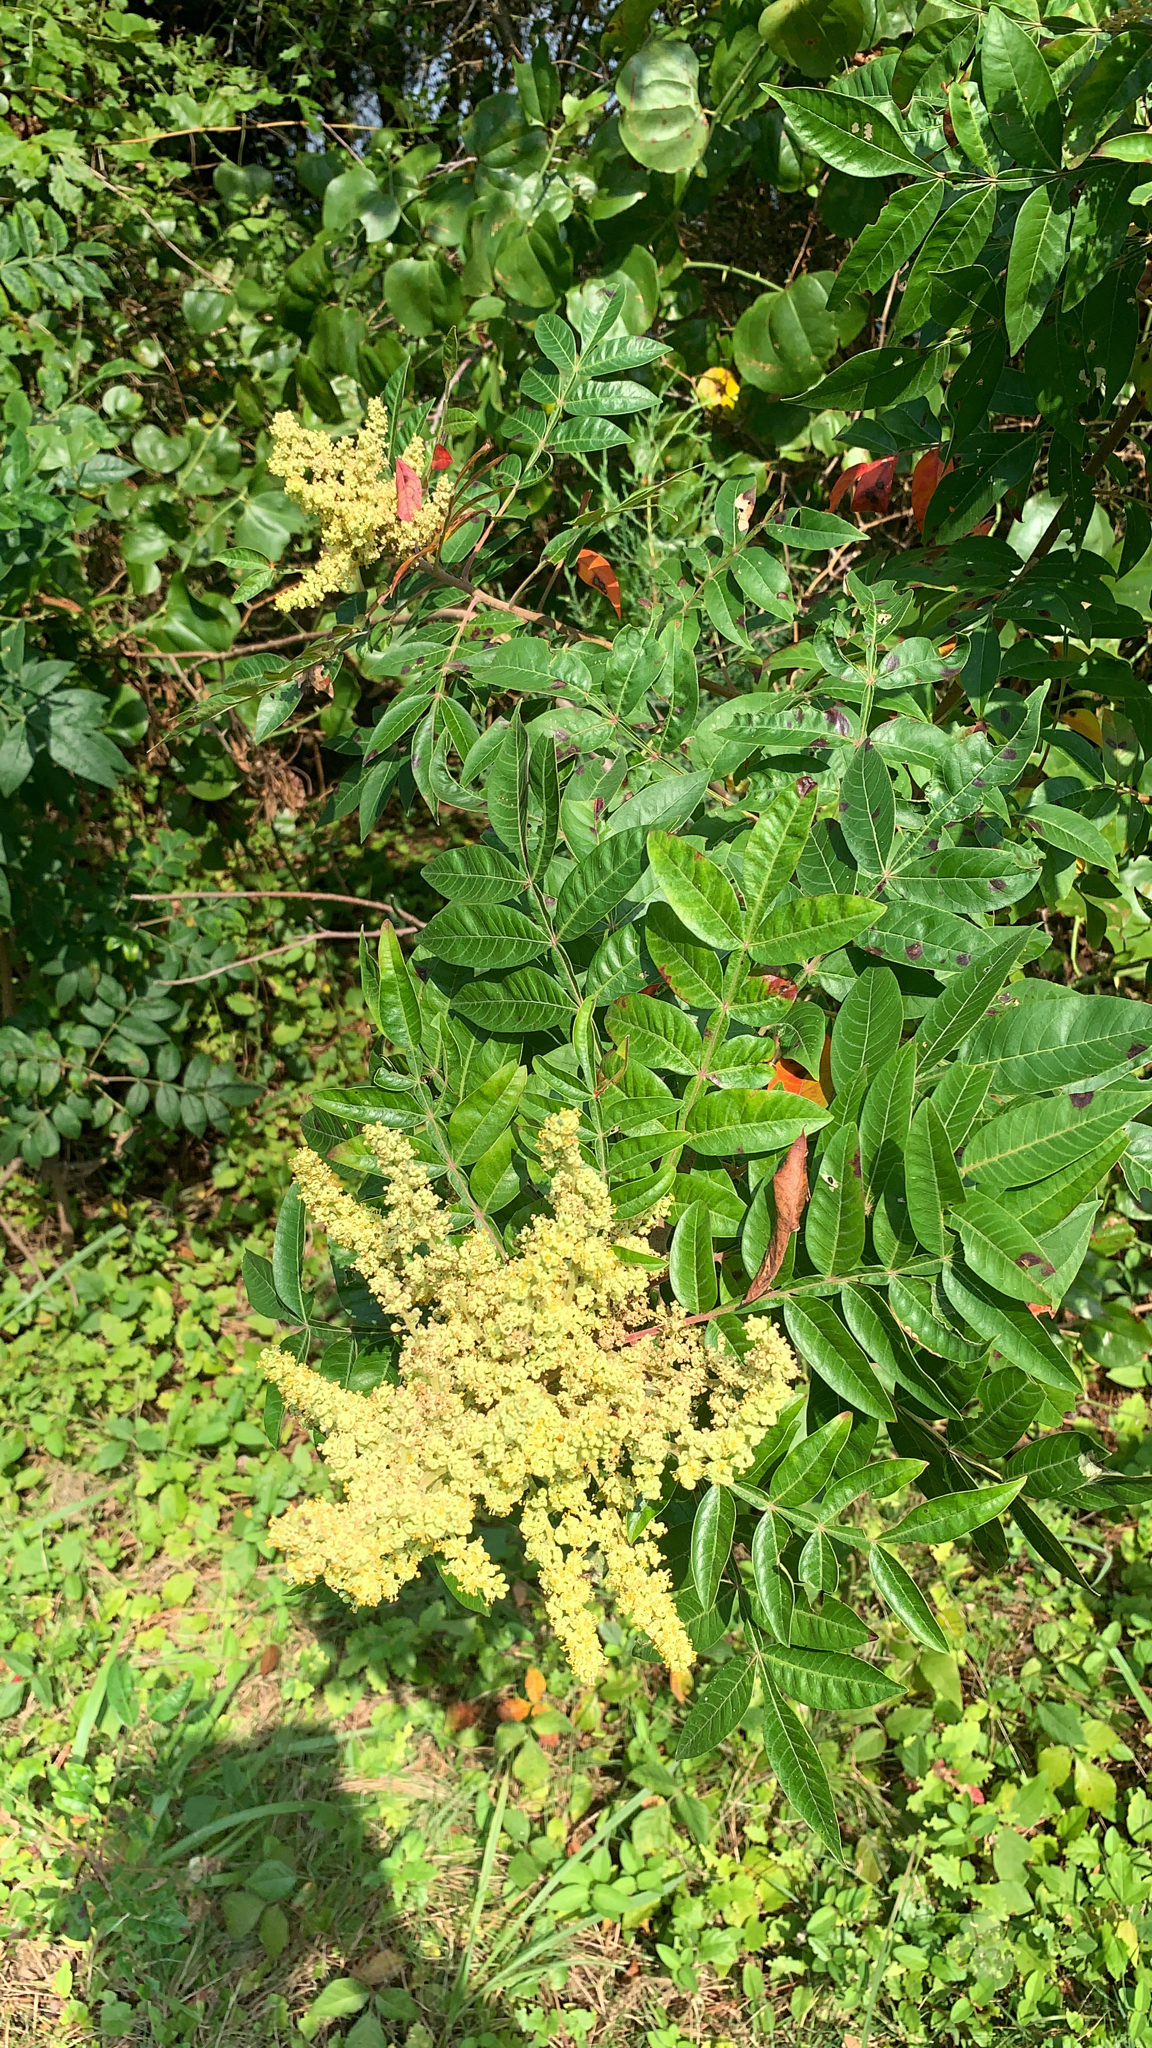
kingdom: Plantae
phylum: Tracheophyta
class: Magnoliopsida
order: Sapindales
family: Anacardiaceae
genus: Rhus
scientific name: Rhus copallina
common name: Shining sumac
